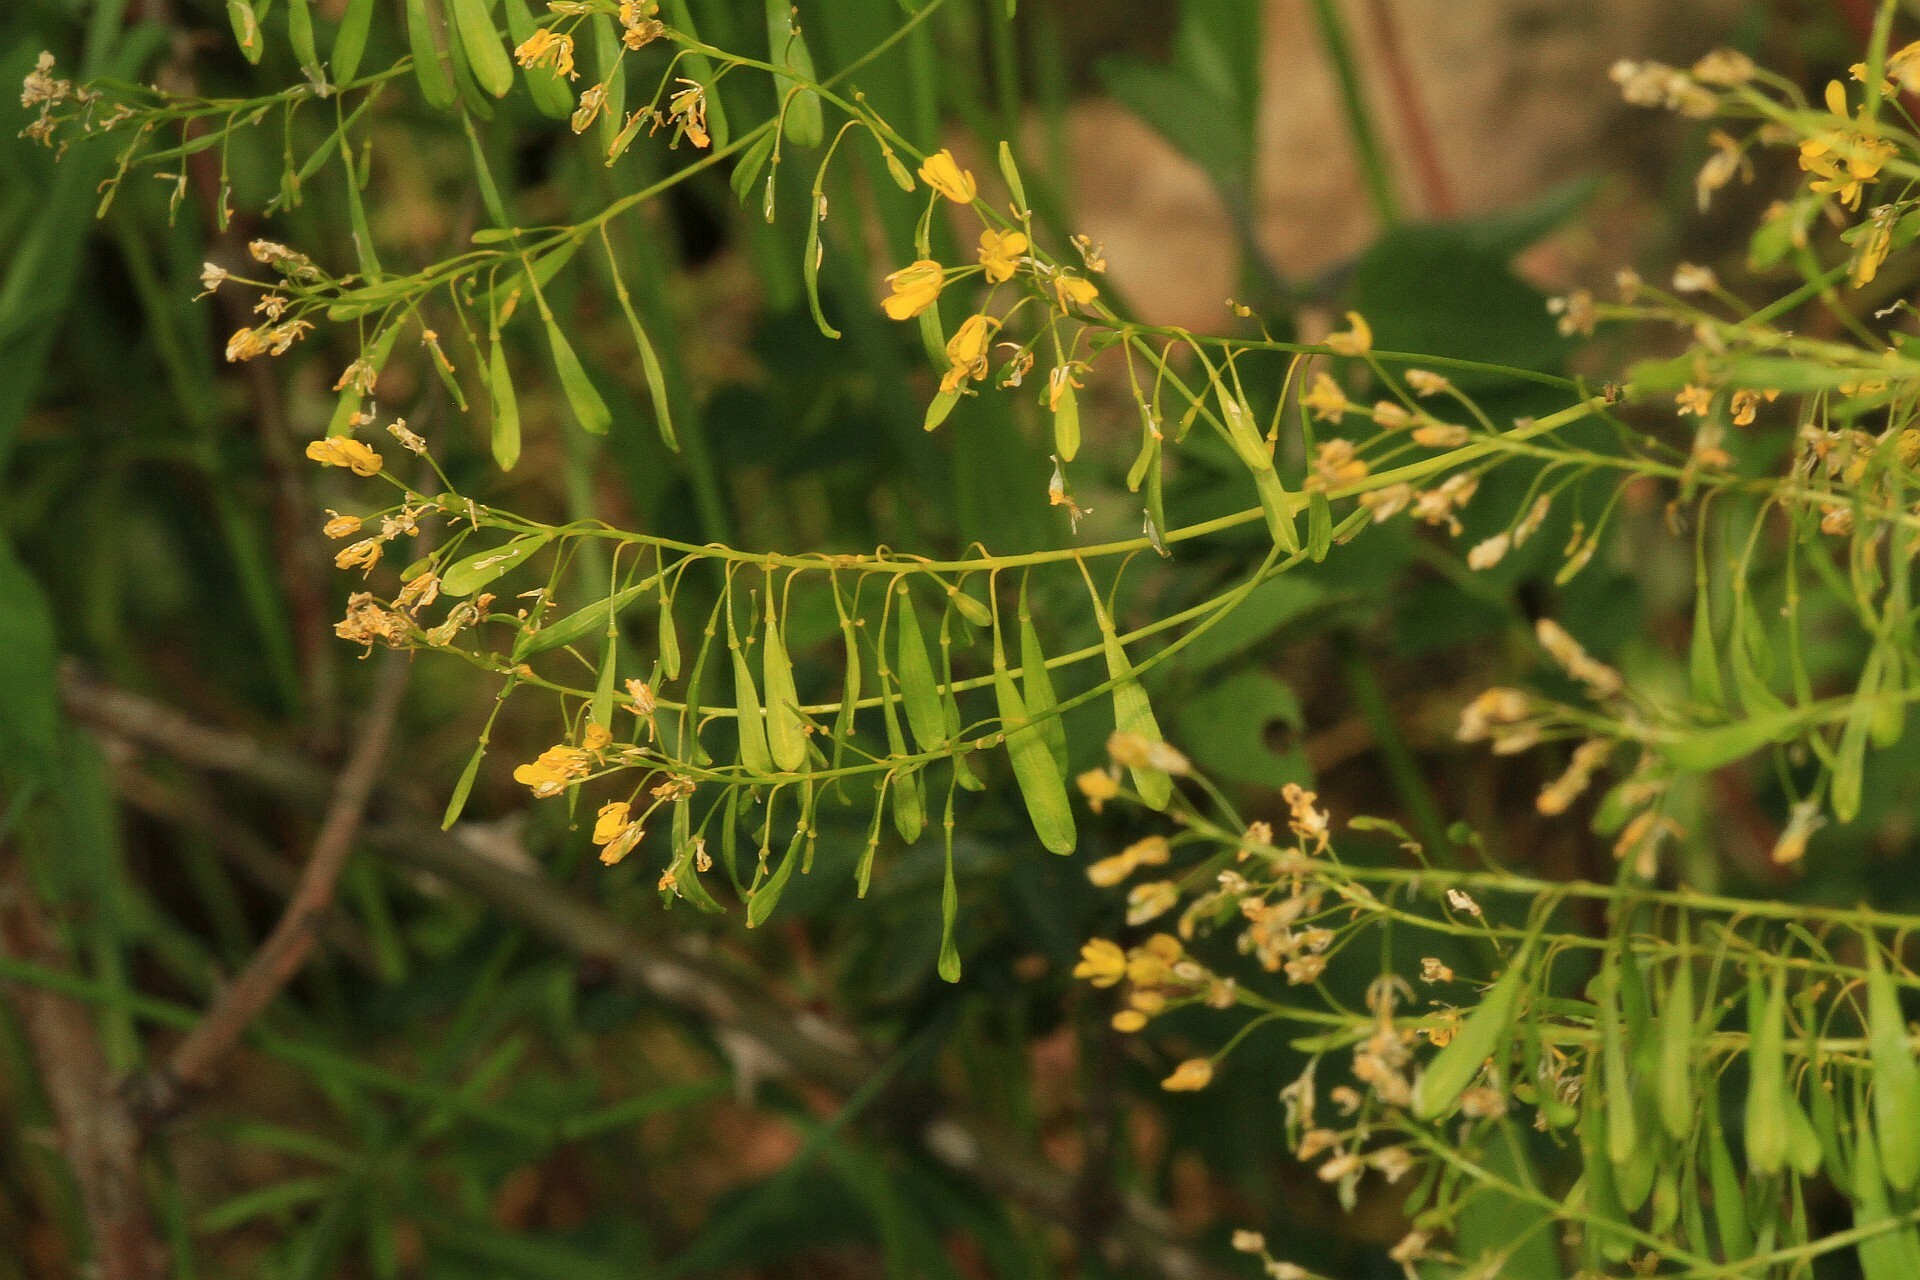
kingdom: Plantae
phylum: Tracheophyta
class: Magnoliopsida
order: Brassicales
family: Brassicaceae
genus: Isatis
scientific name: Isatis tinctoria
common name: Woad
